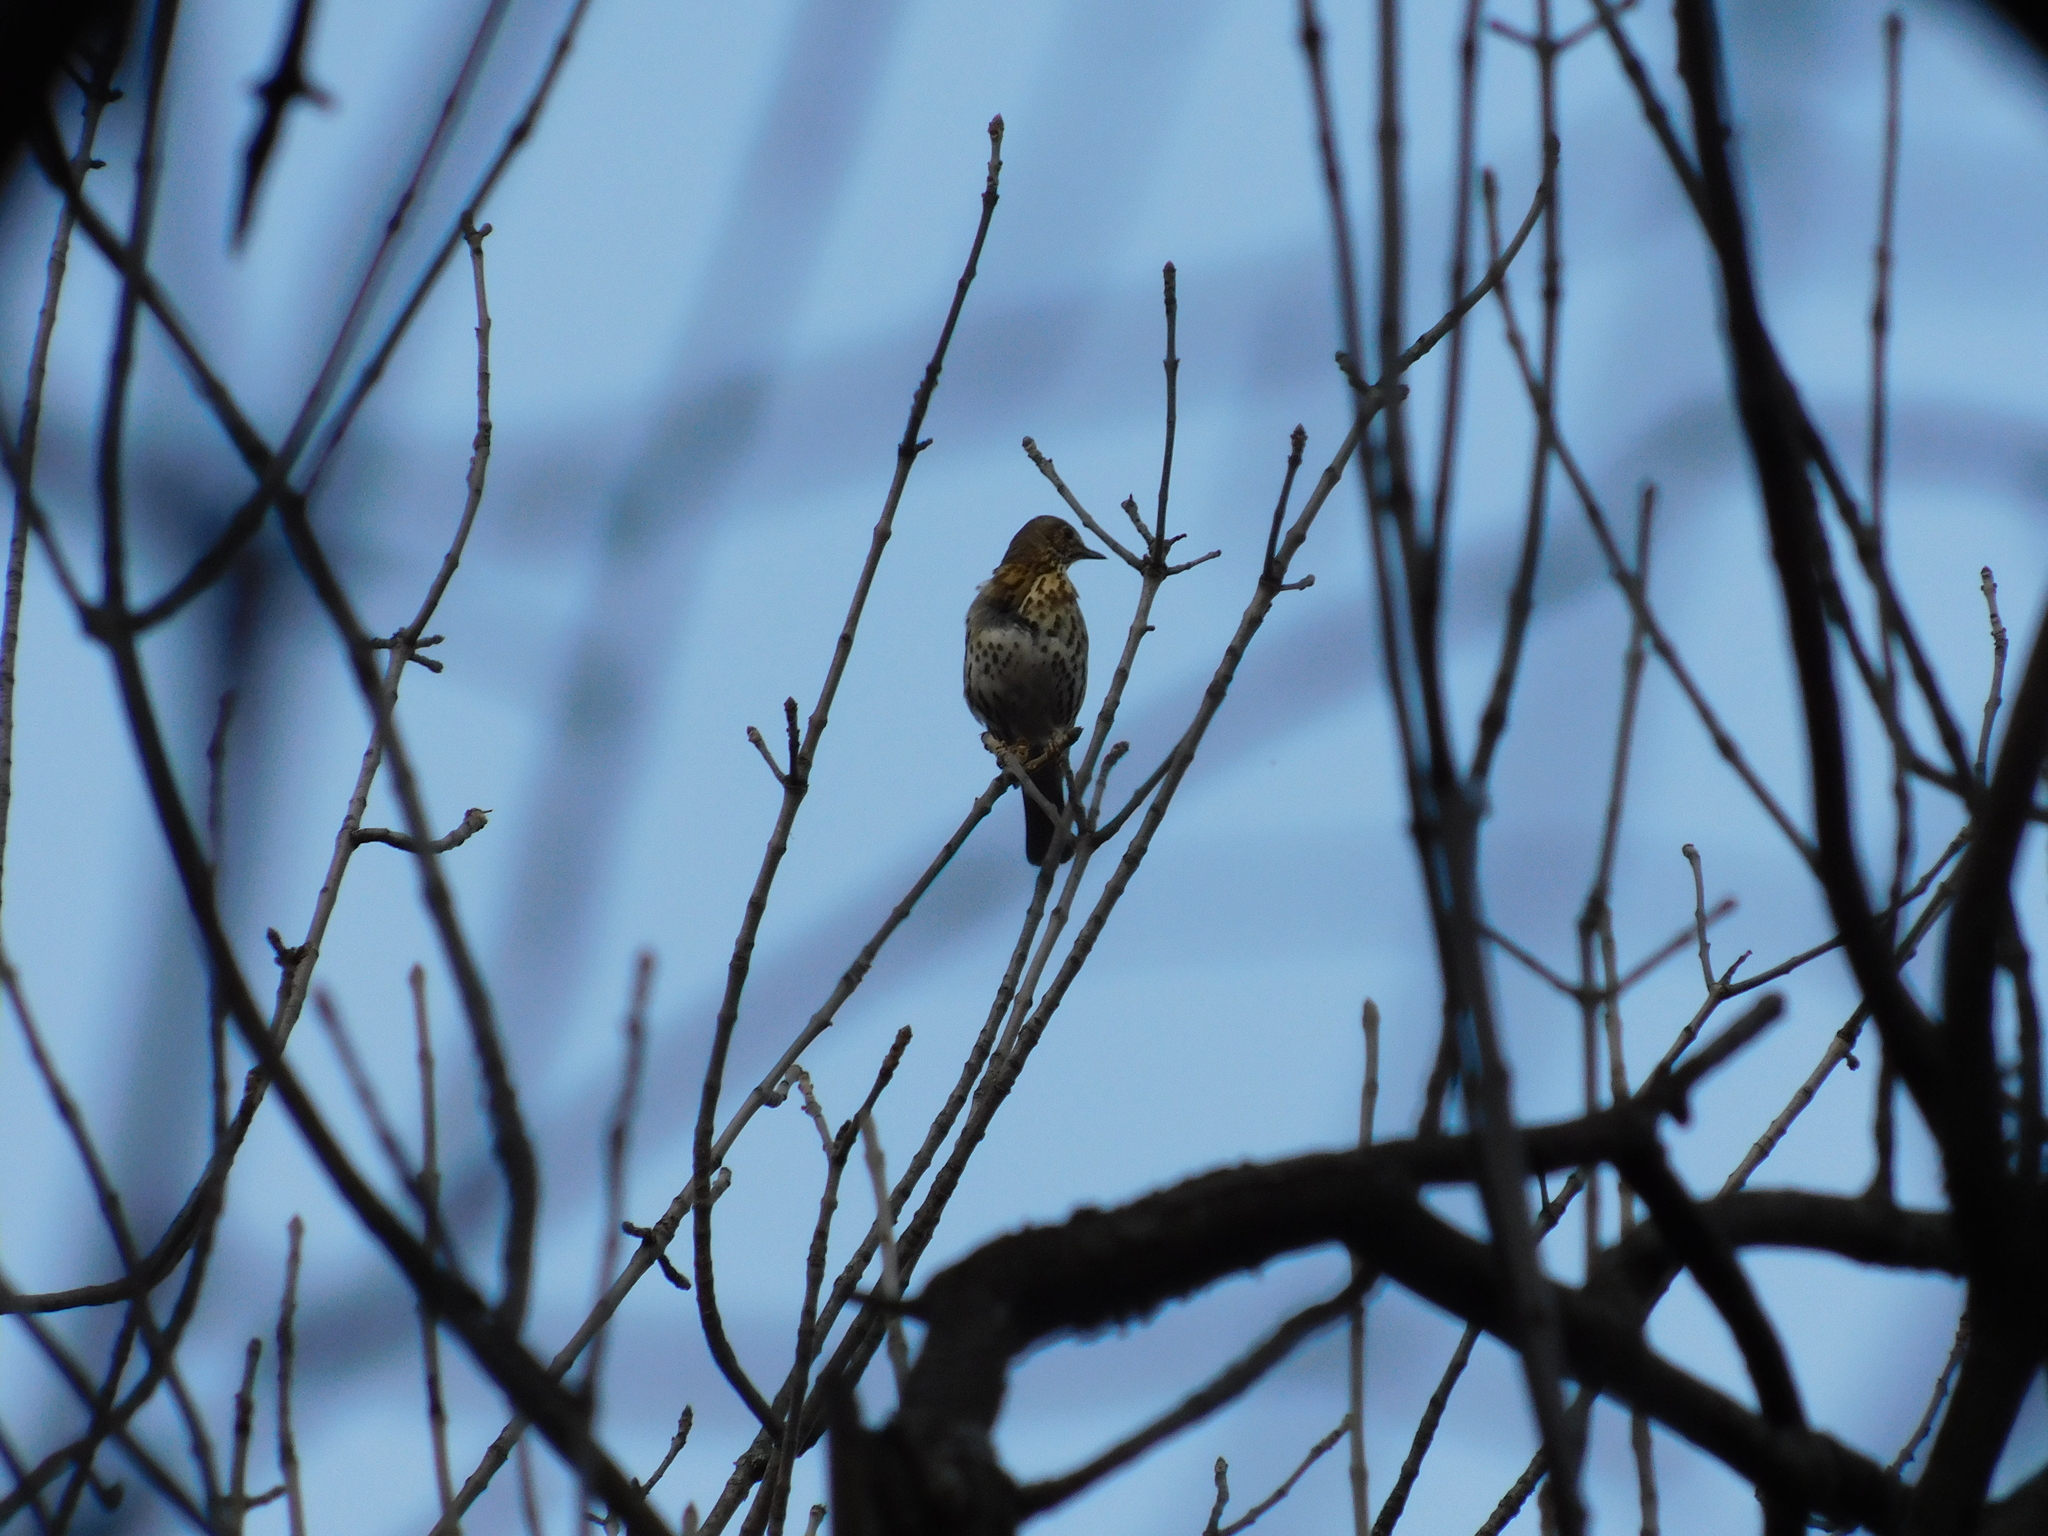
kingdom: Animalia
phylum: Chordata
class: Aves
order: Passeriformes
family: Turdidae
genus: Turdus
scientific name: Turdus philomelos
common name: Song thrush
